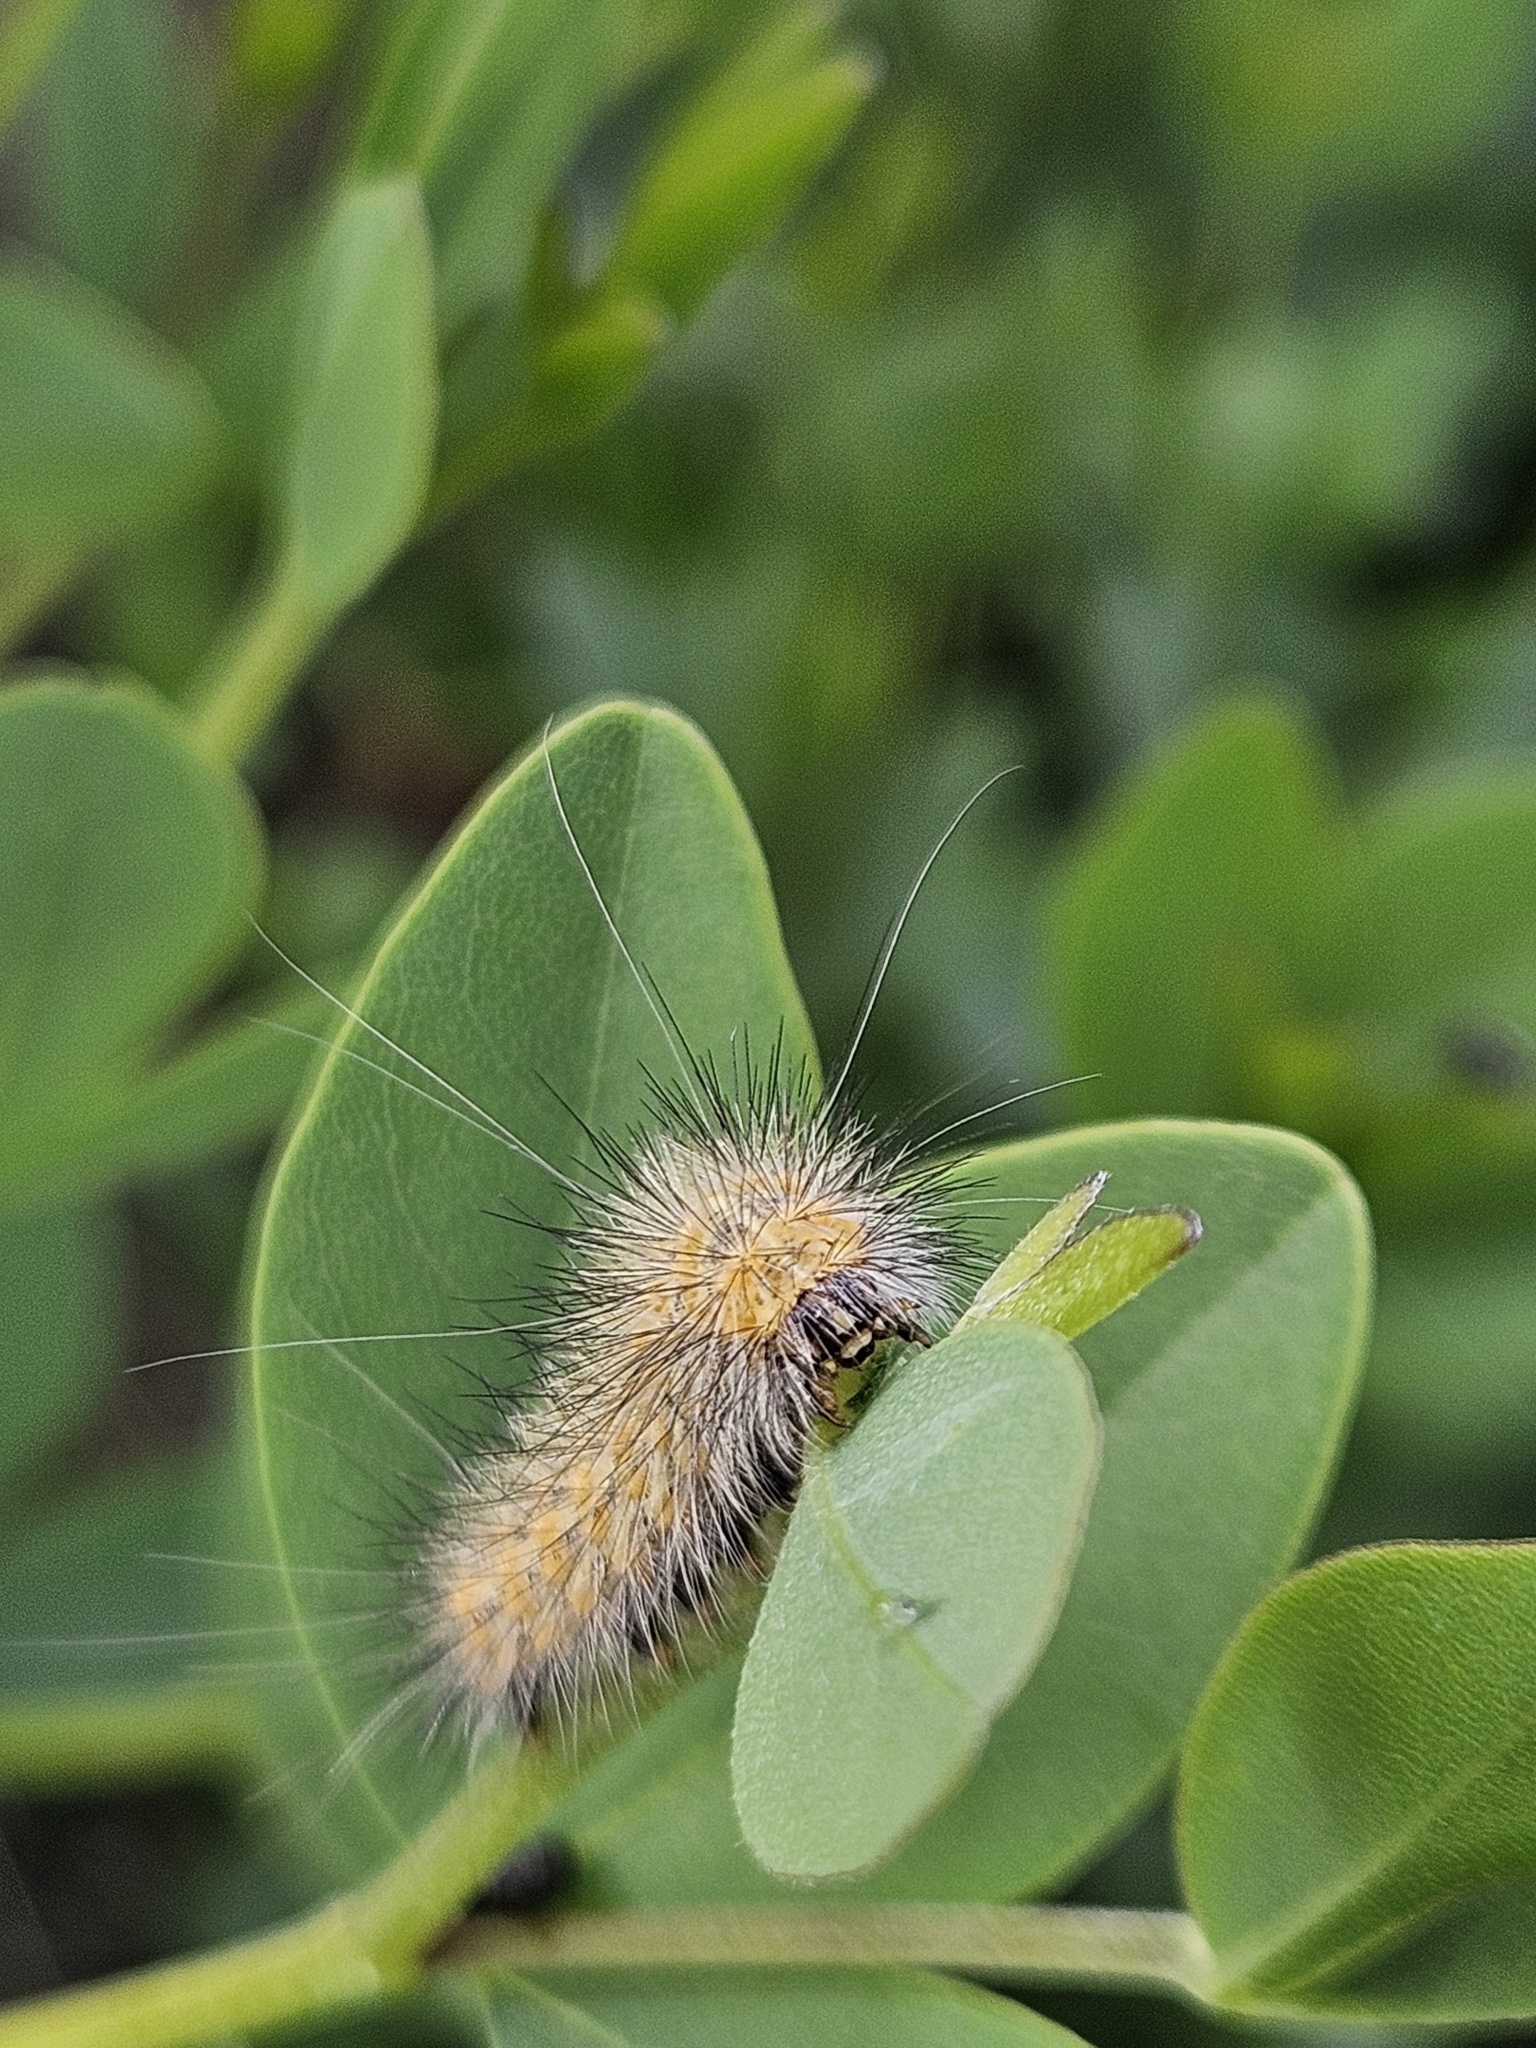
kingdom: Animalia
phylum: Arthropoda
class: Insecta
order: Lepidoptera
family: Erebidae
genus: Estigmene
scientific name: Estigmene acrea
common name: Salt marsh moth
